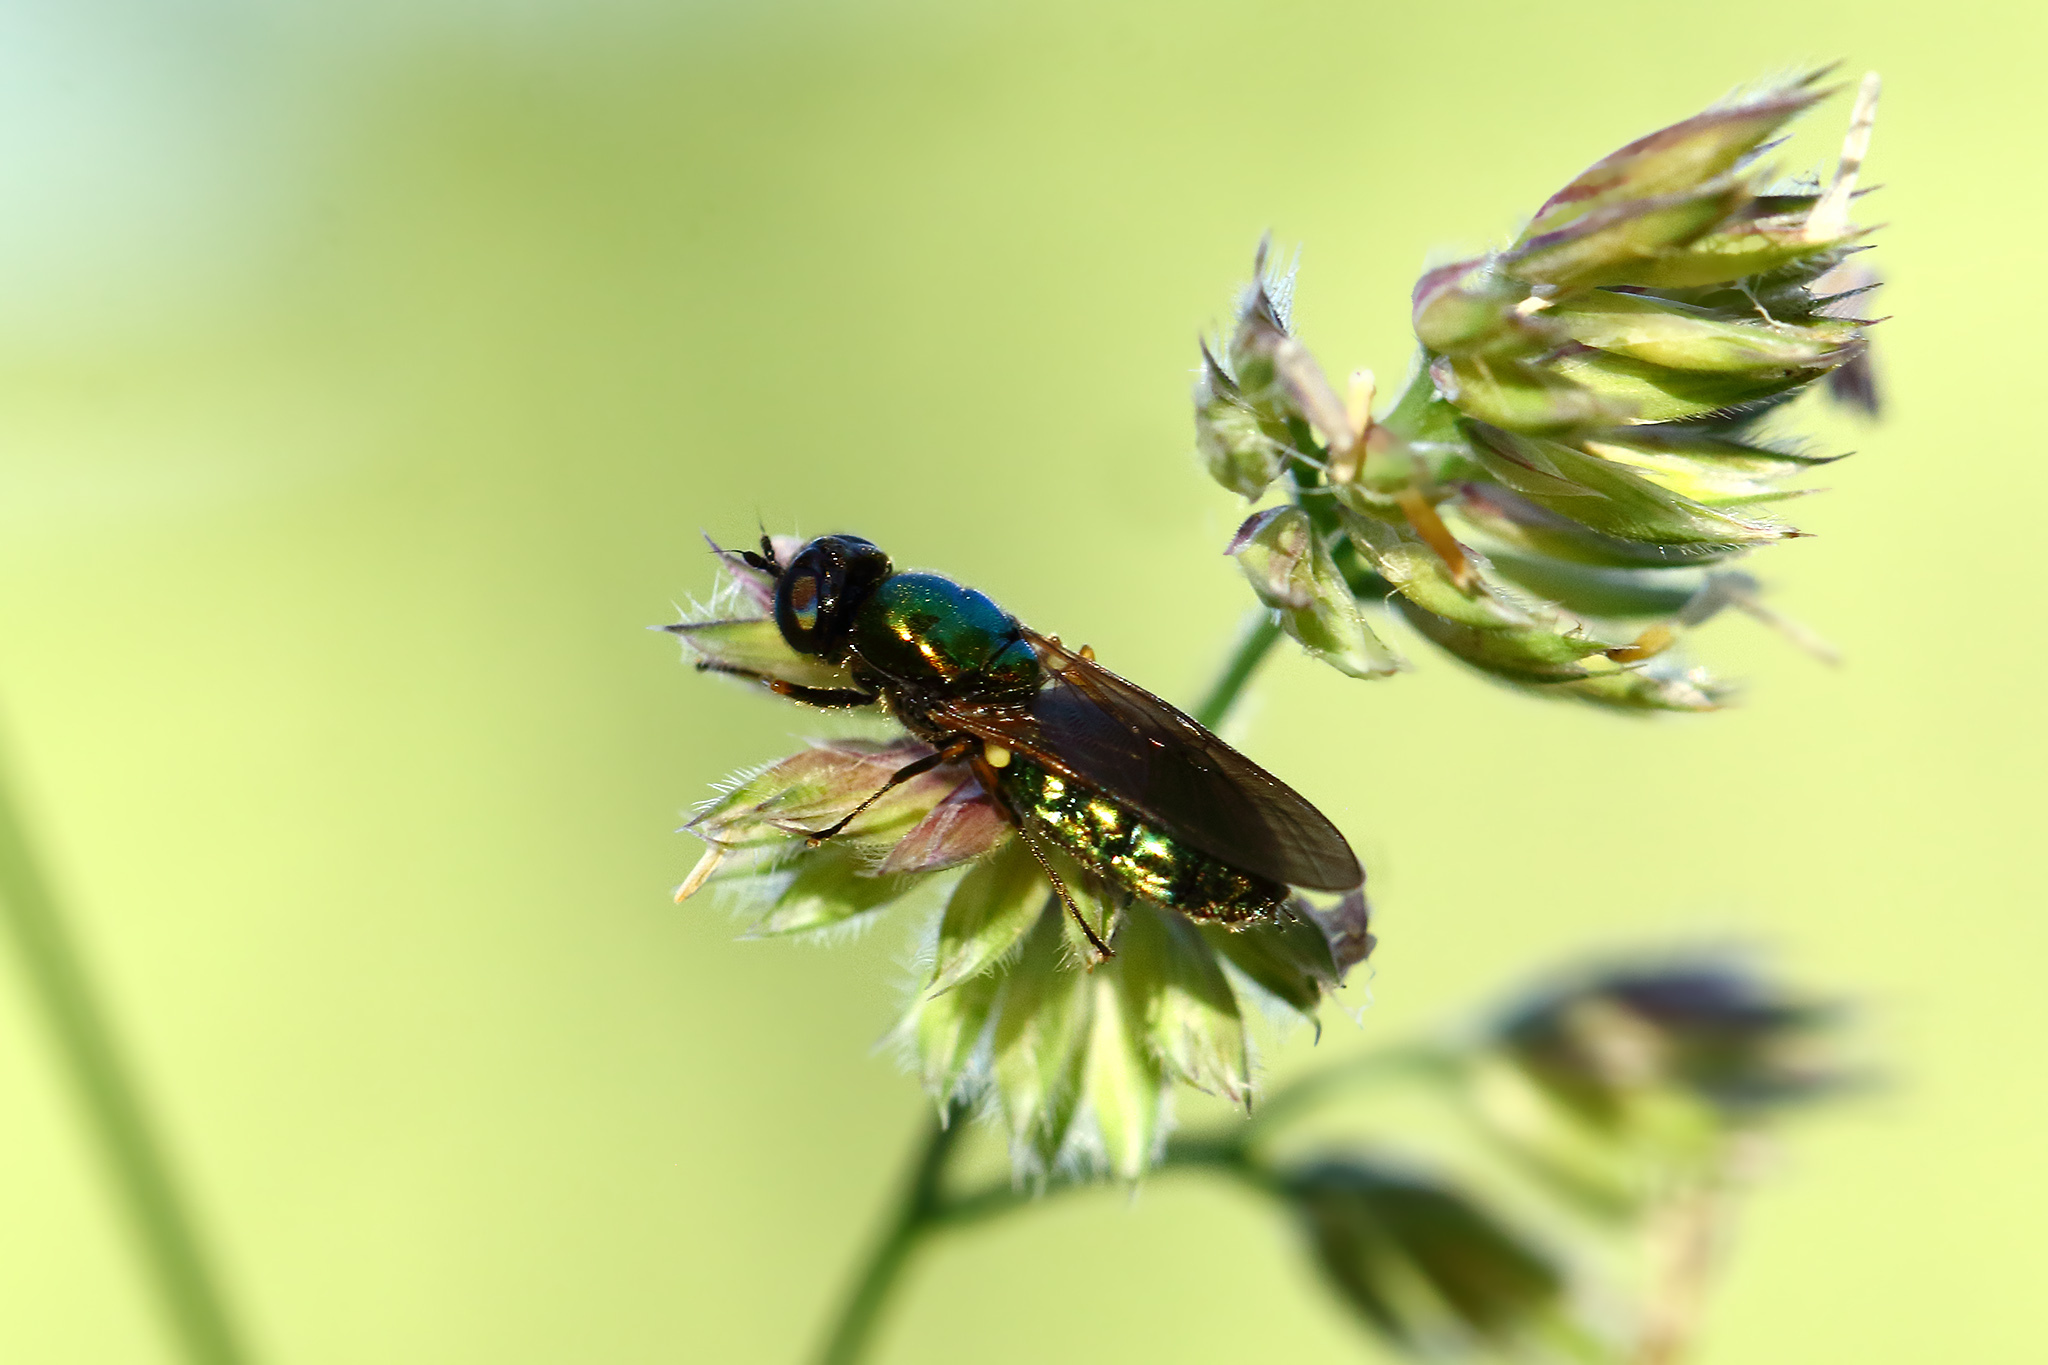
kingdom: Animalia
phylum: Arthropoda
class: Insecta
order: Diptera
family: Stratiomyidae
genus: Chloromyia
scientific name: Chloromyia formosa
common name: Soldier fly
